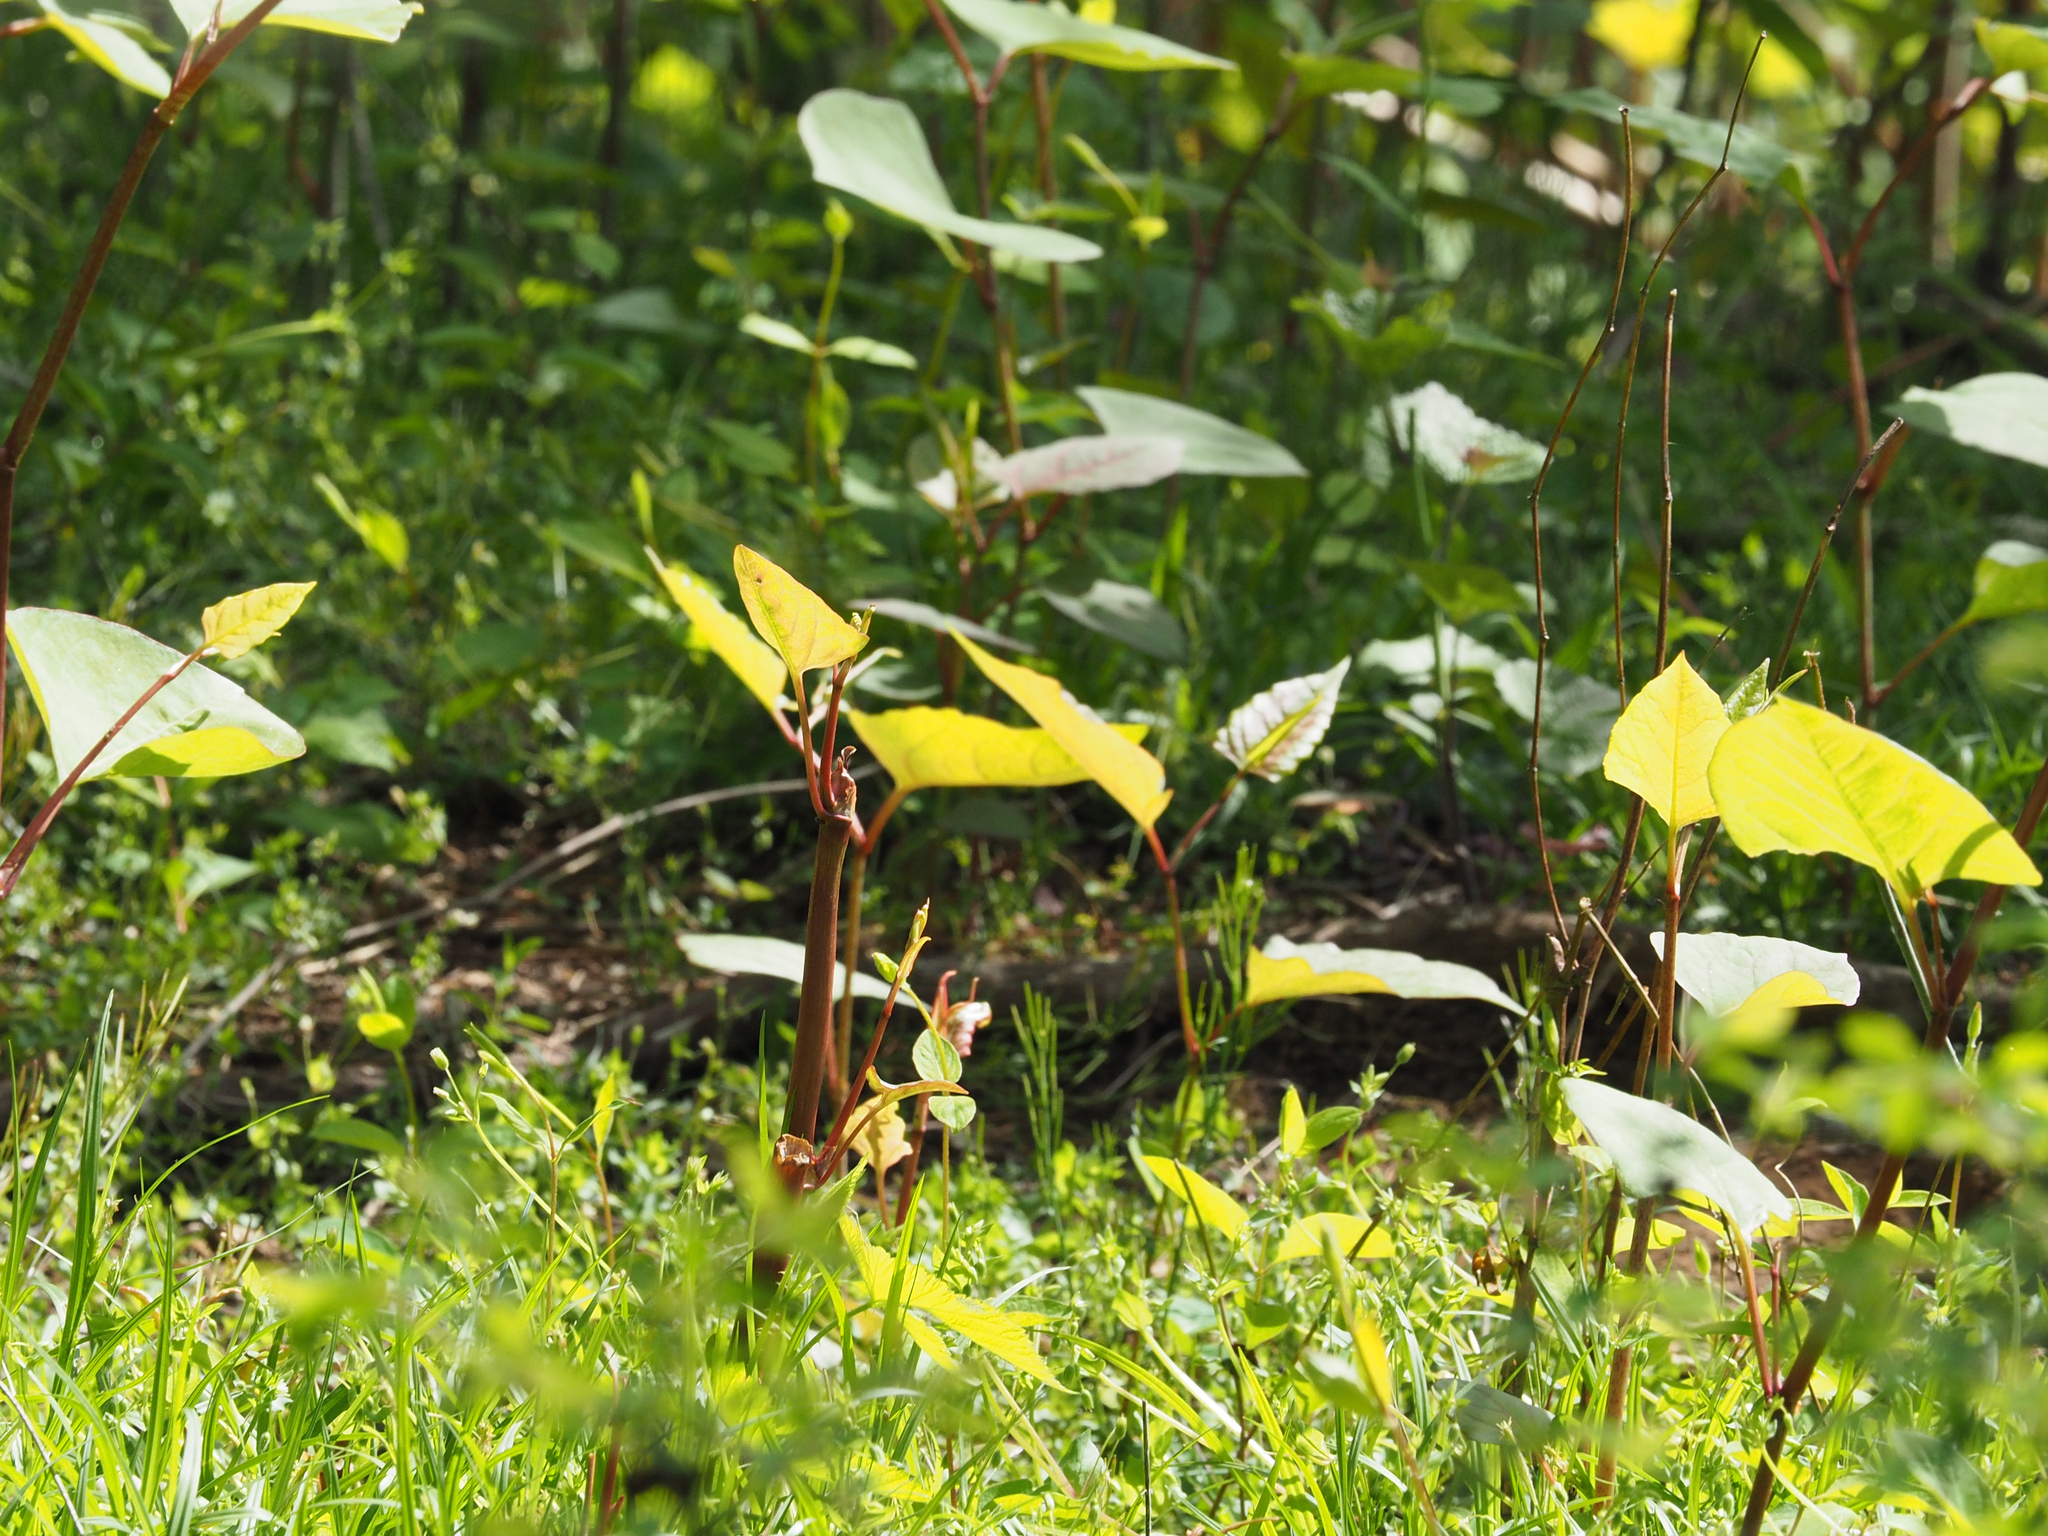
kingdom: Plantae
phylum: Tracheophyta
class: Magnoliopsida
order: Caryophyllales
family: Polygonaceae
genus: Reynoutria
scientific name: Reynoutria japonica
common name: Japanese knotweed
